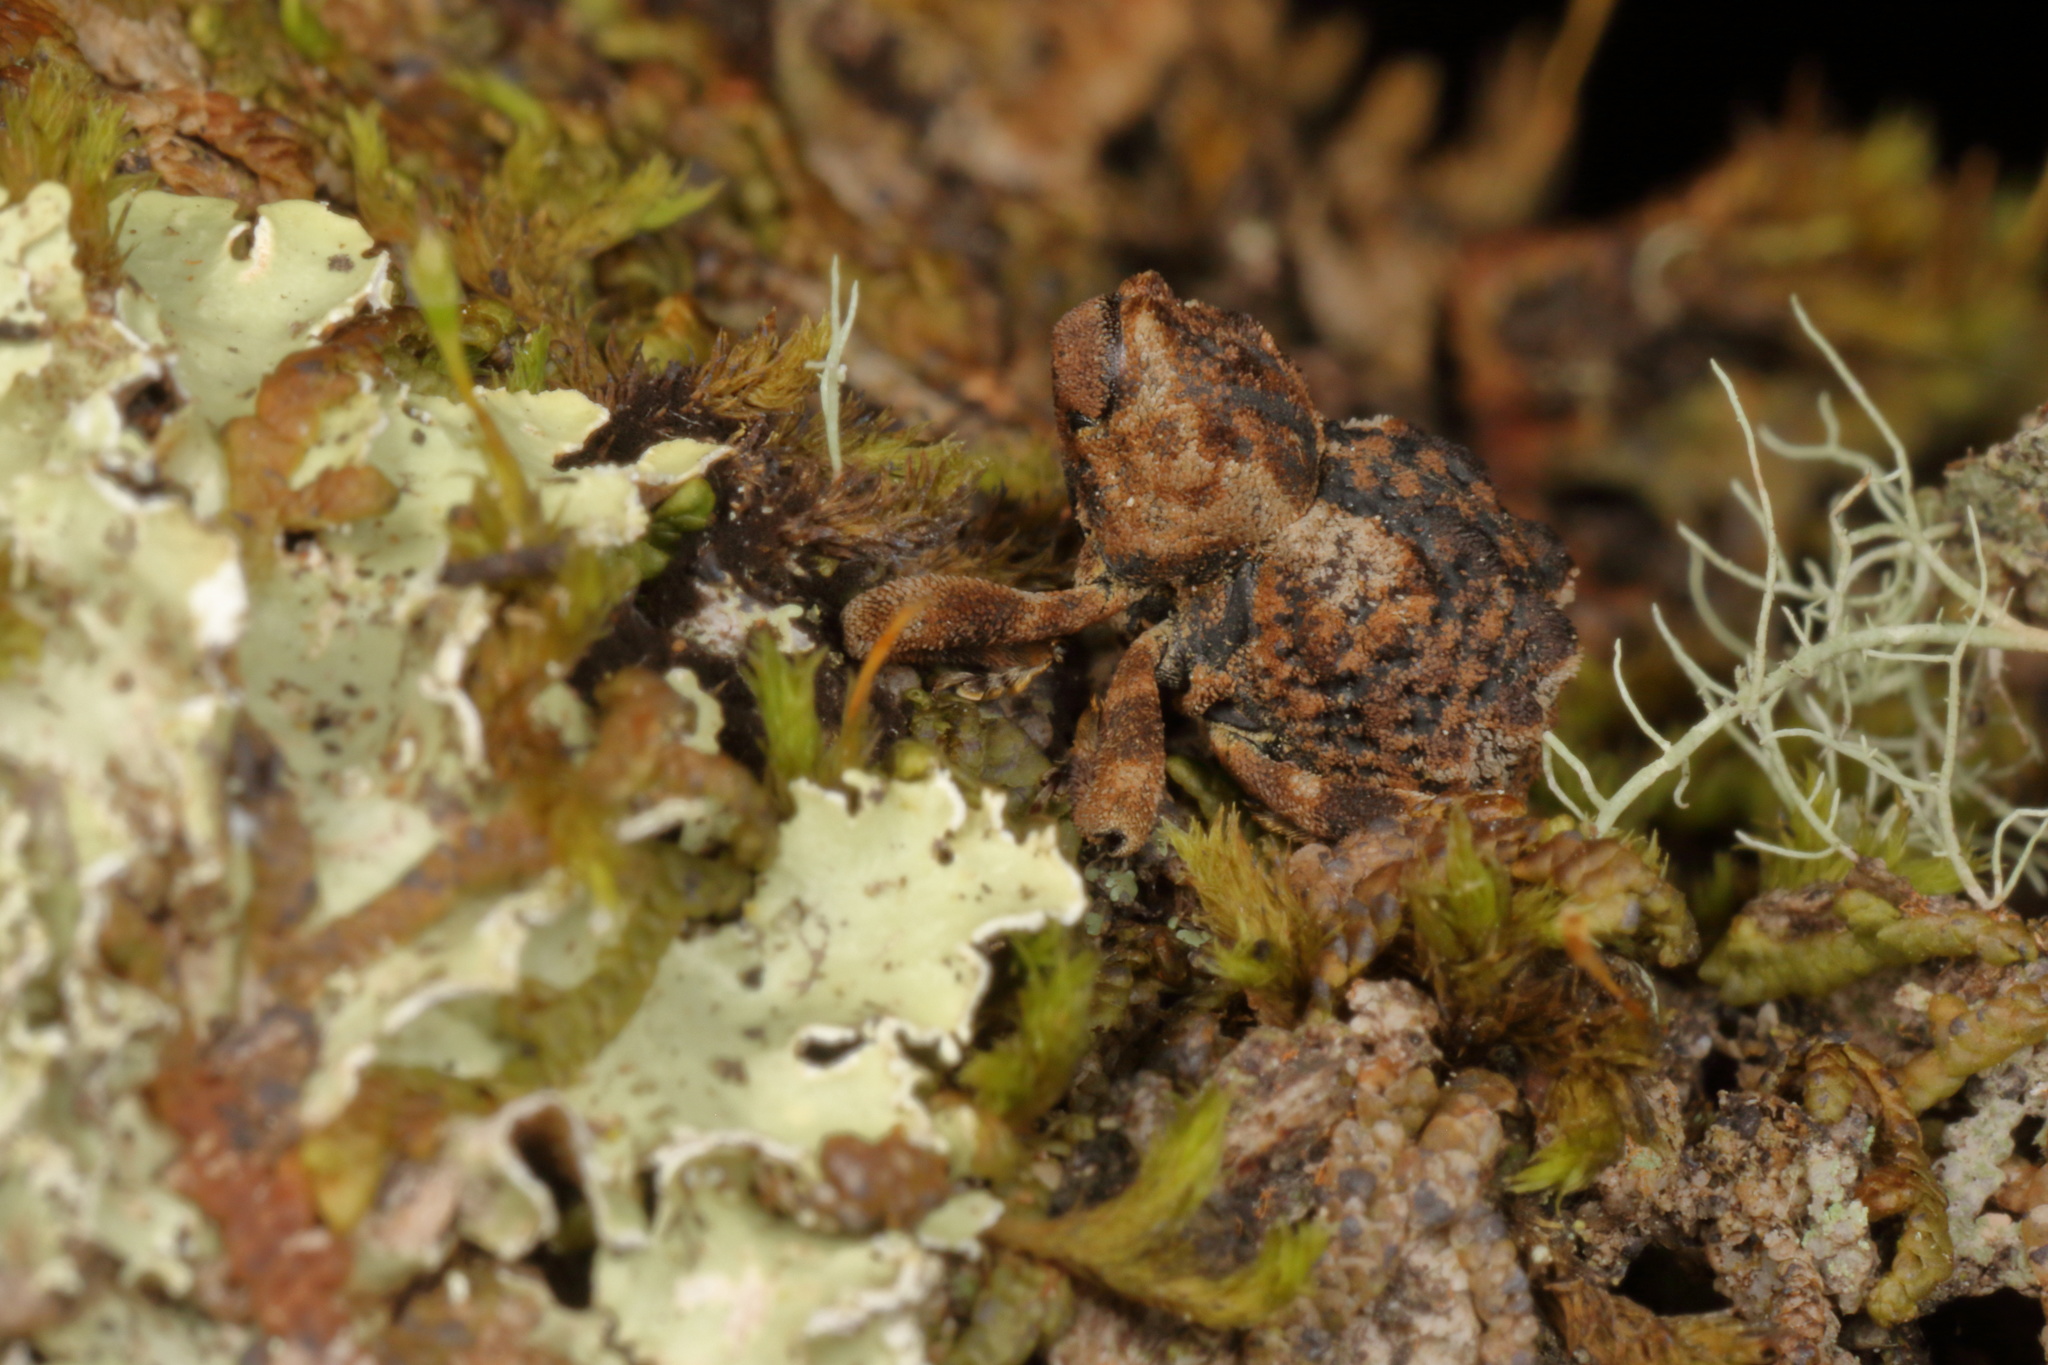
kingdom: Animalia
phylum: Arthropoda
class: Insecta
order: Coleoptera
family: Curculionidae
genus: Tychanopais
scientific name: Tychanopais fougeri
